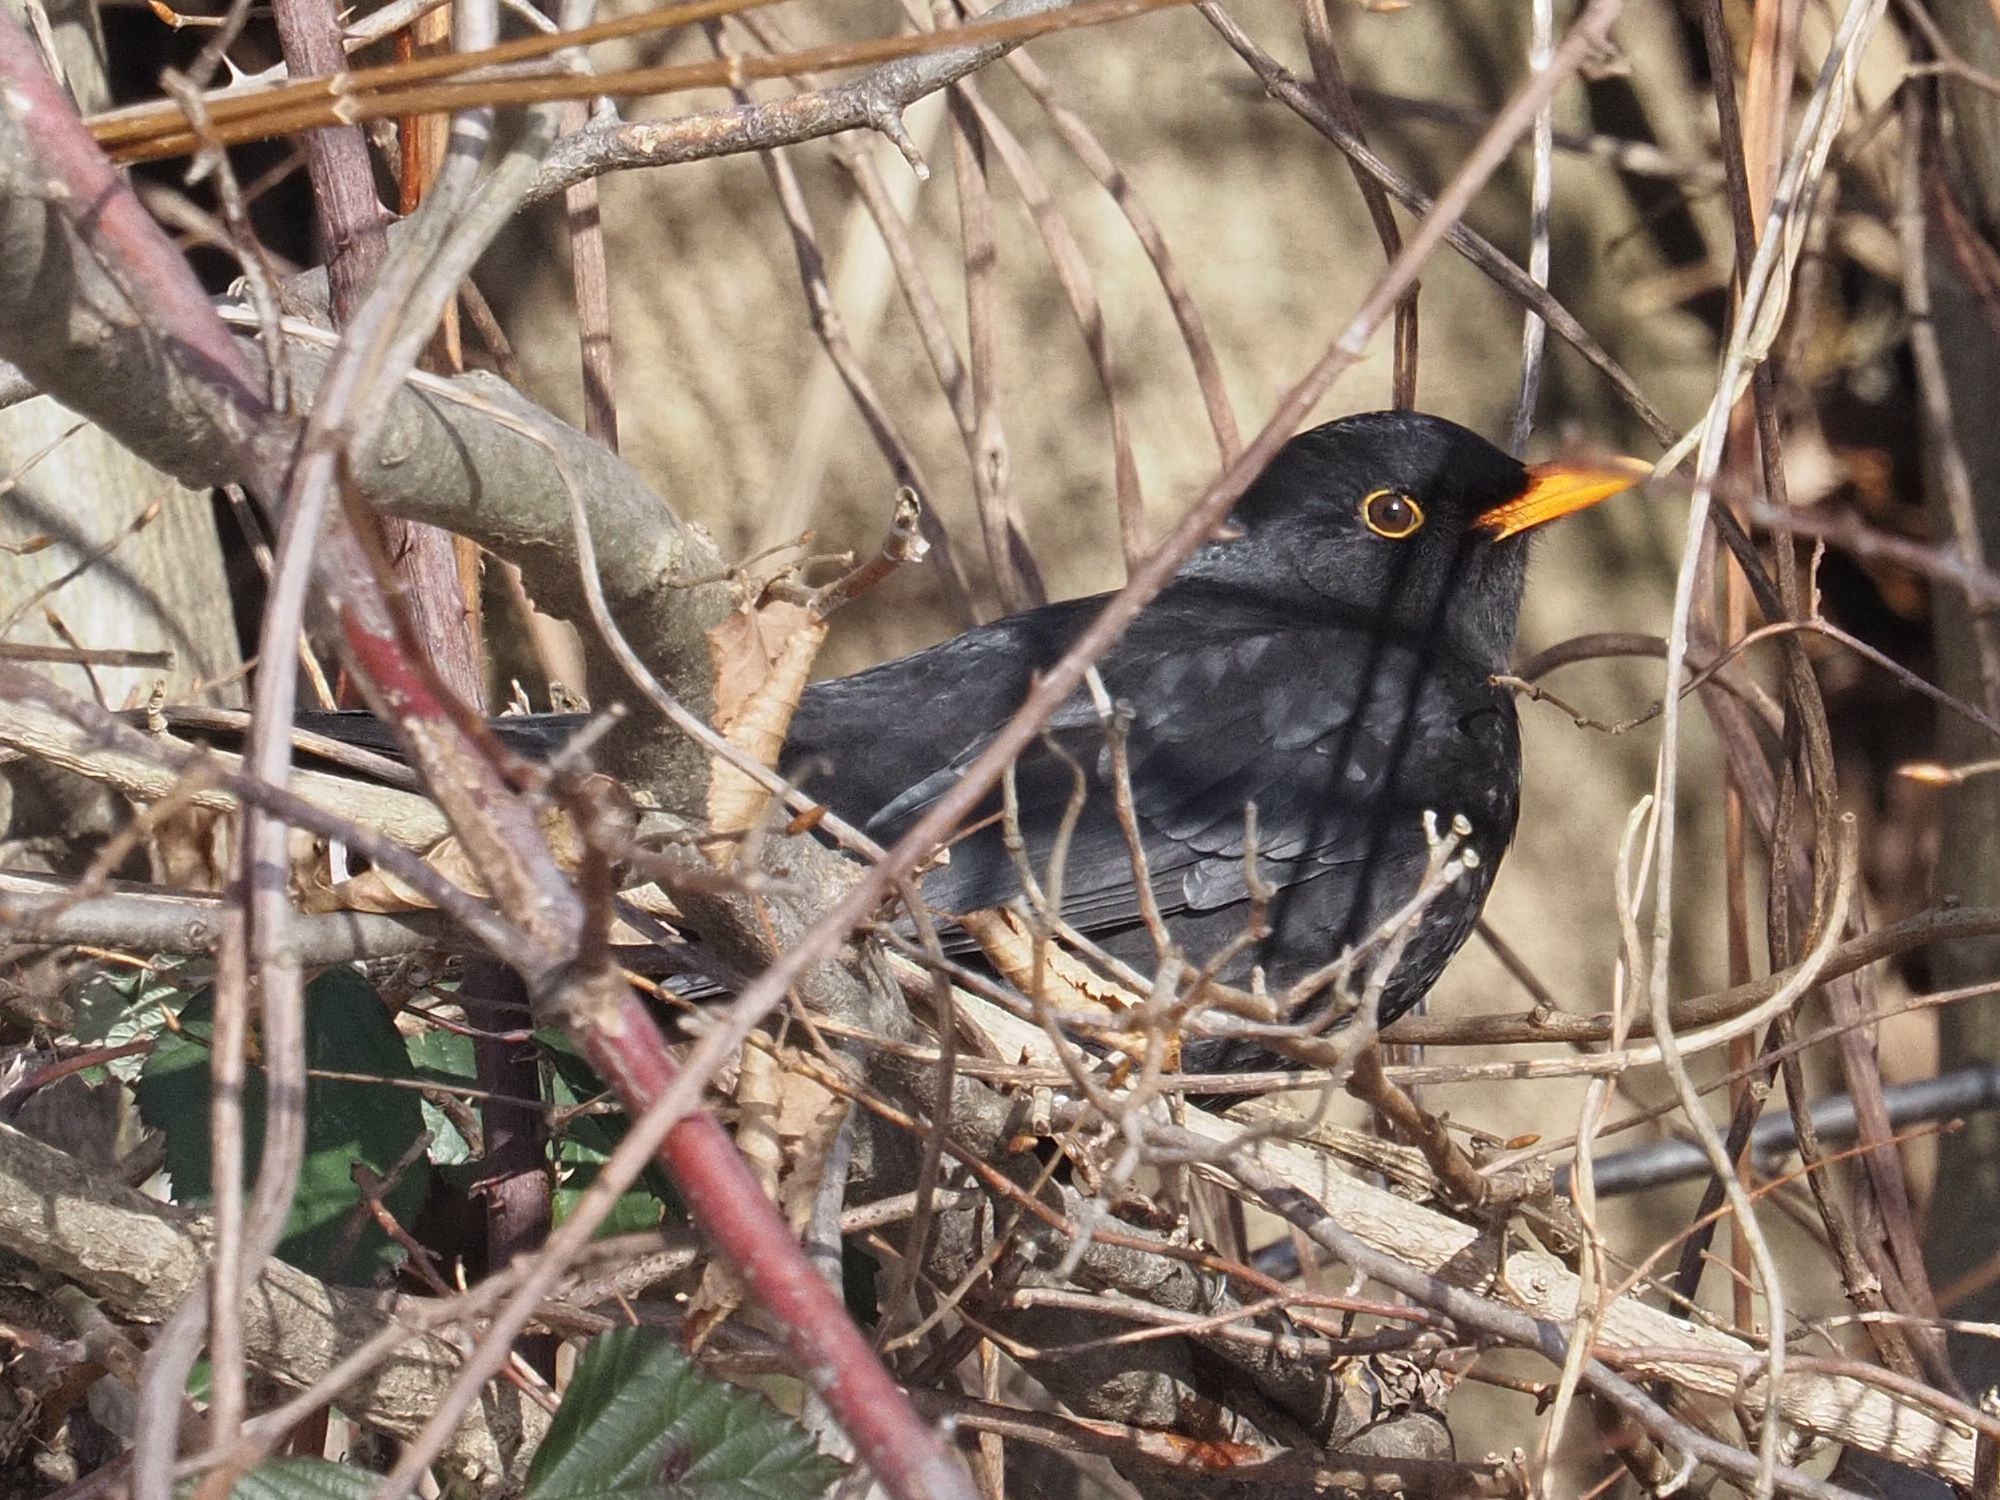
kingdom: Animalia
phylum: Chordata
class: Aves
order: Passeriformes
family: Turdidae
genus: Turdus
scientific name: Turdus merula
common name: Common blackbird
